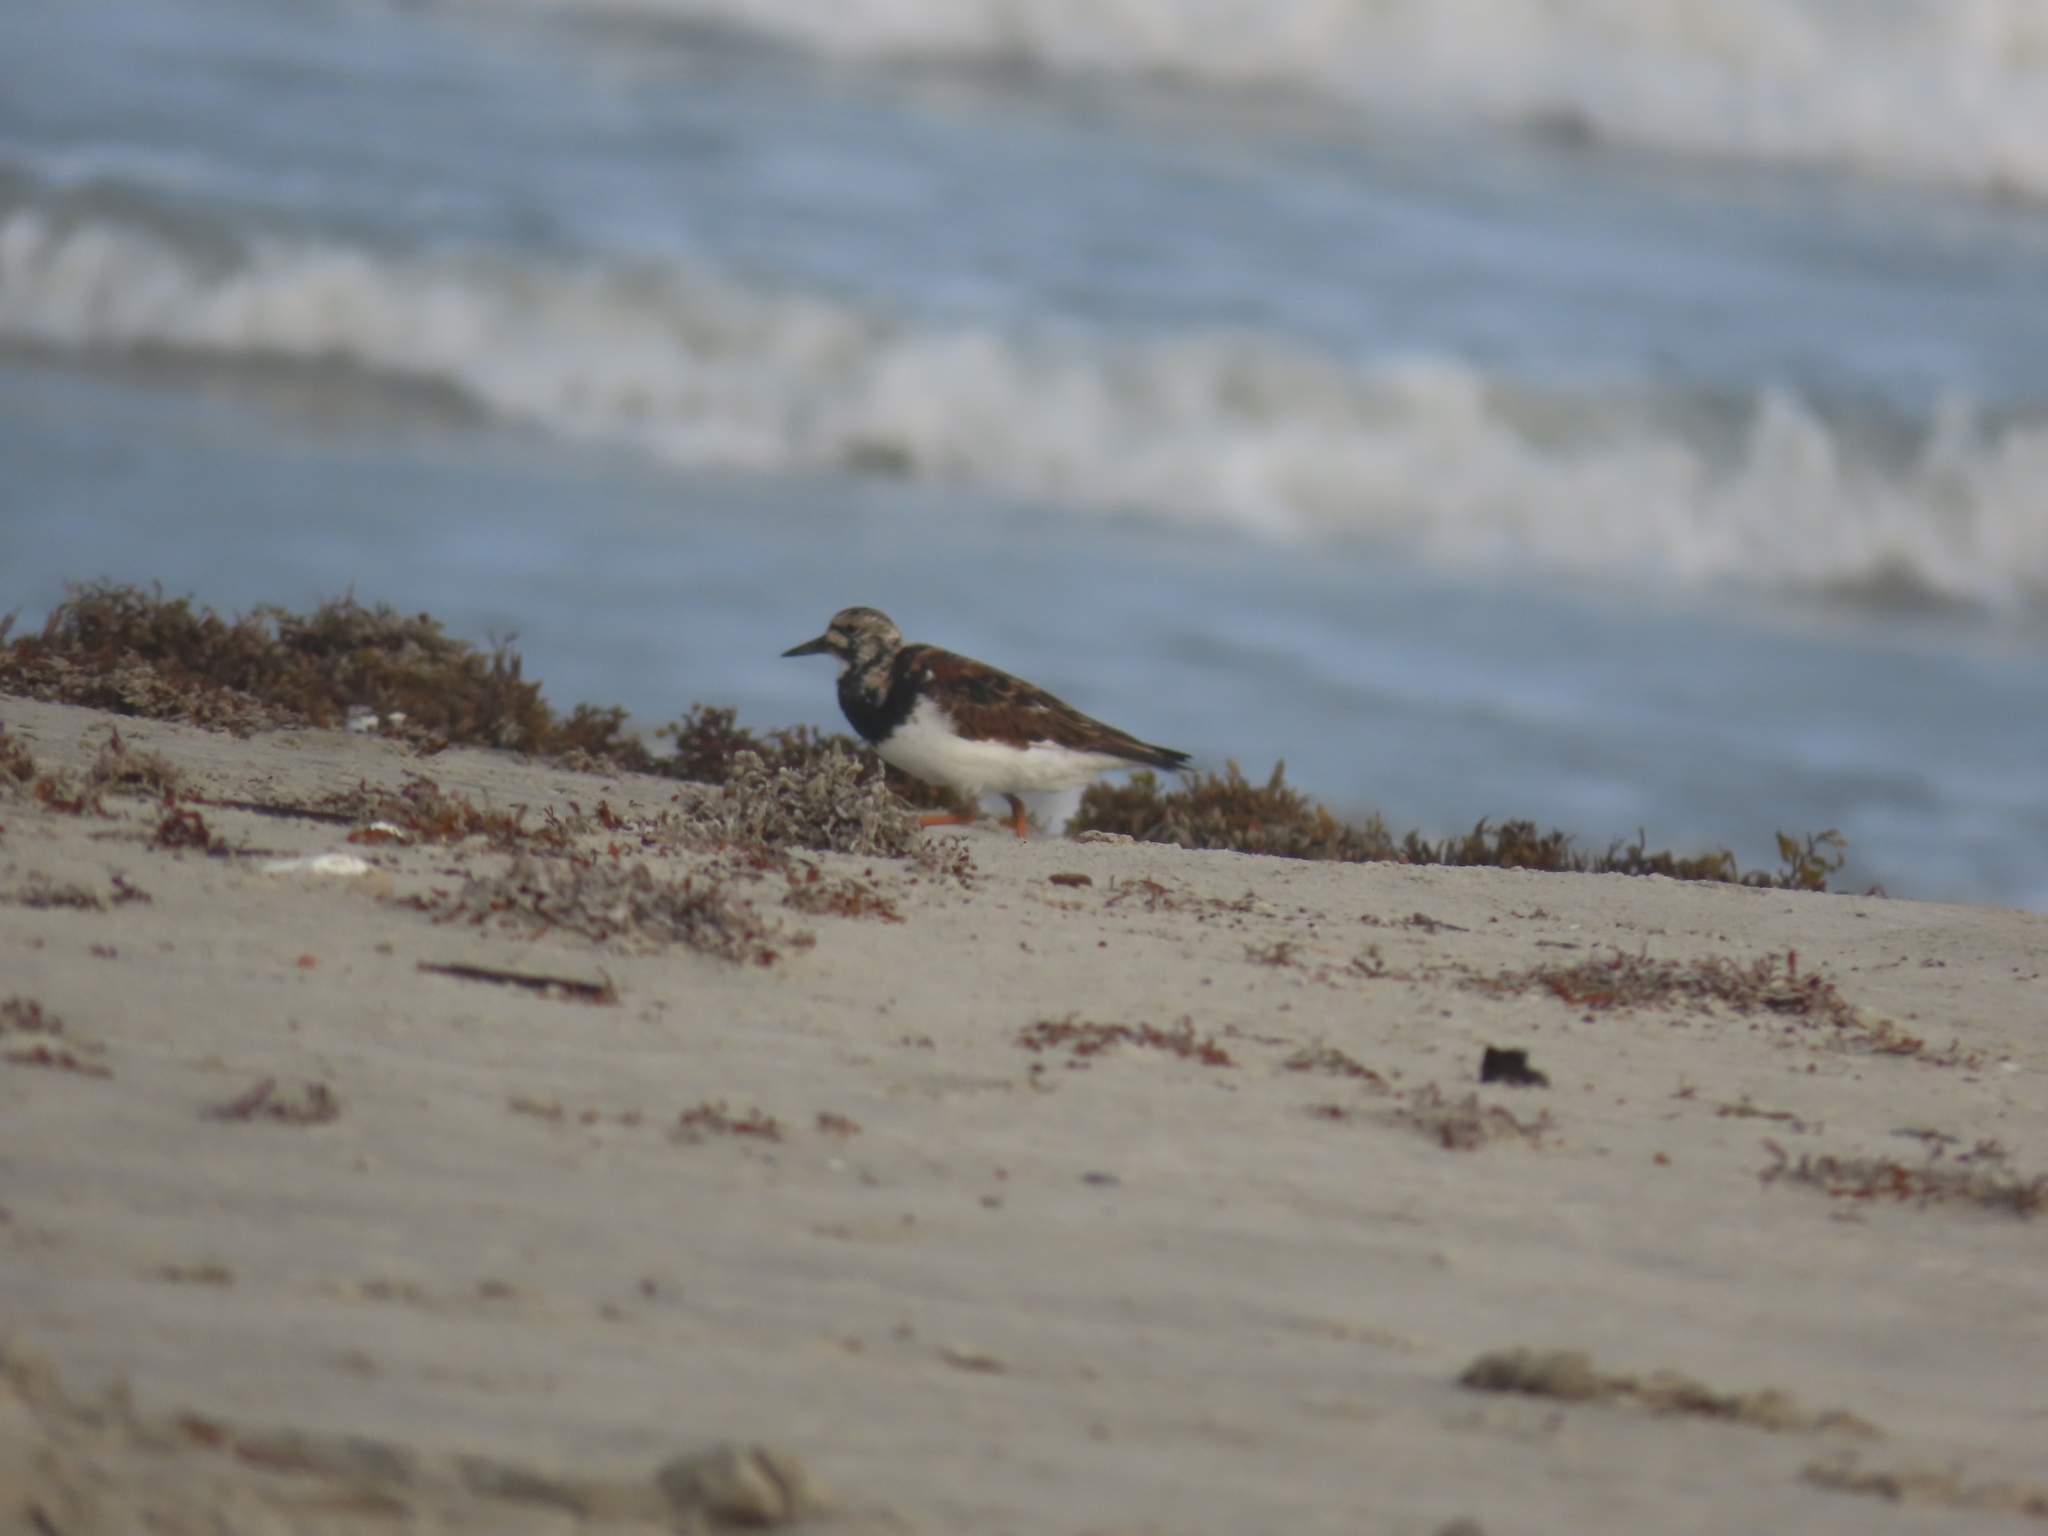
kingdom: Animalia
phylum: Chordata
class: Aves
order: Charadriiformes
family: Scolopacidae
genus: Arenaria
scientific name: Arenaria interpres
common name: Ruddy turnstone
